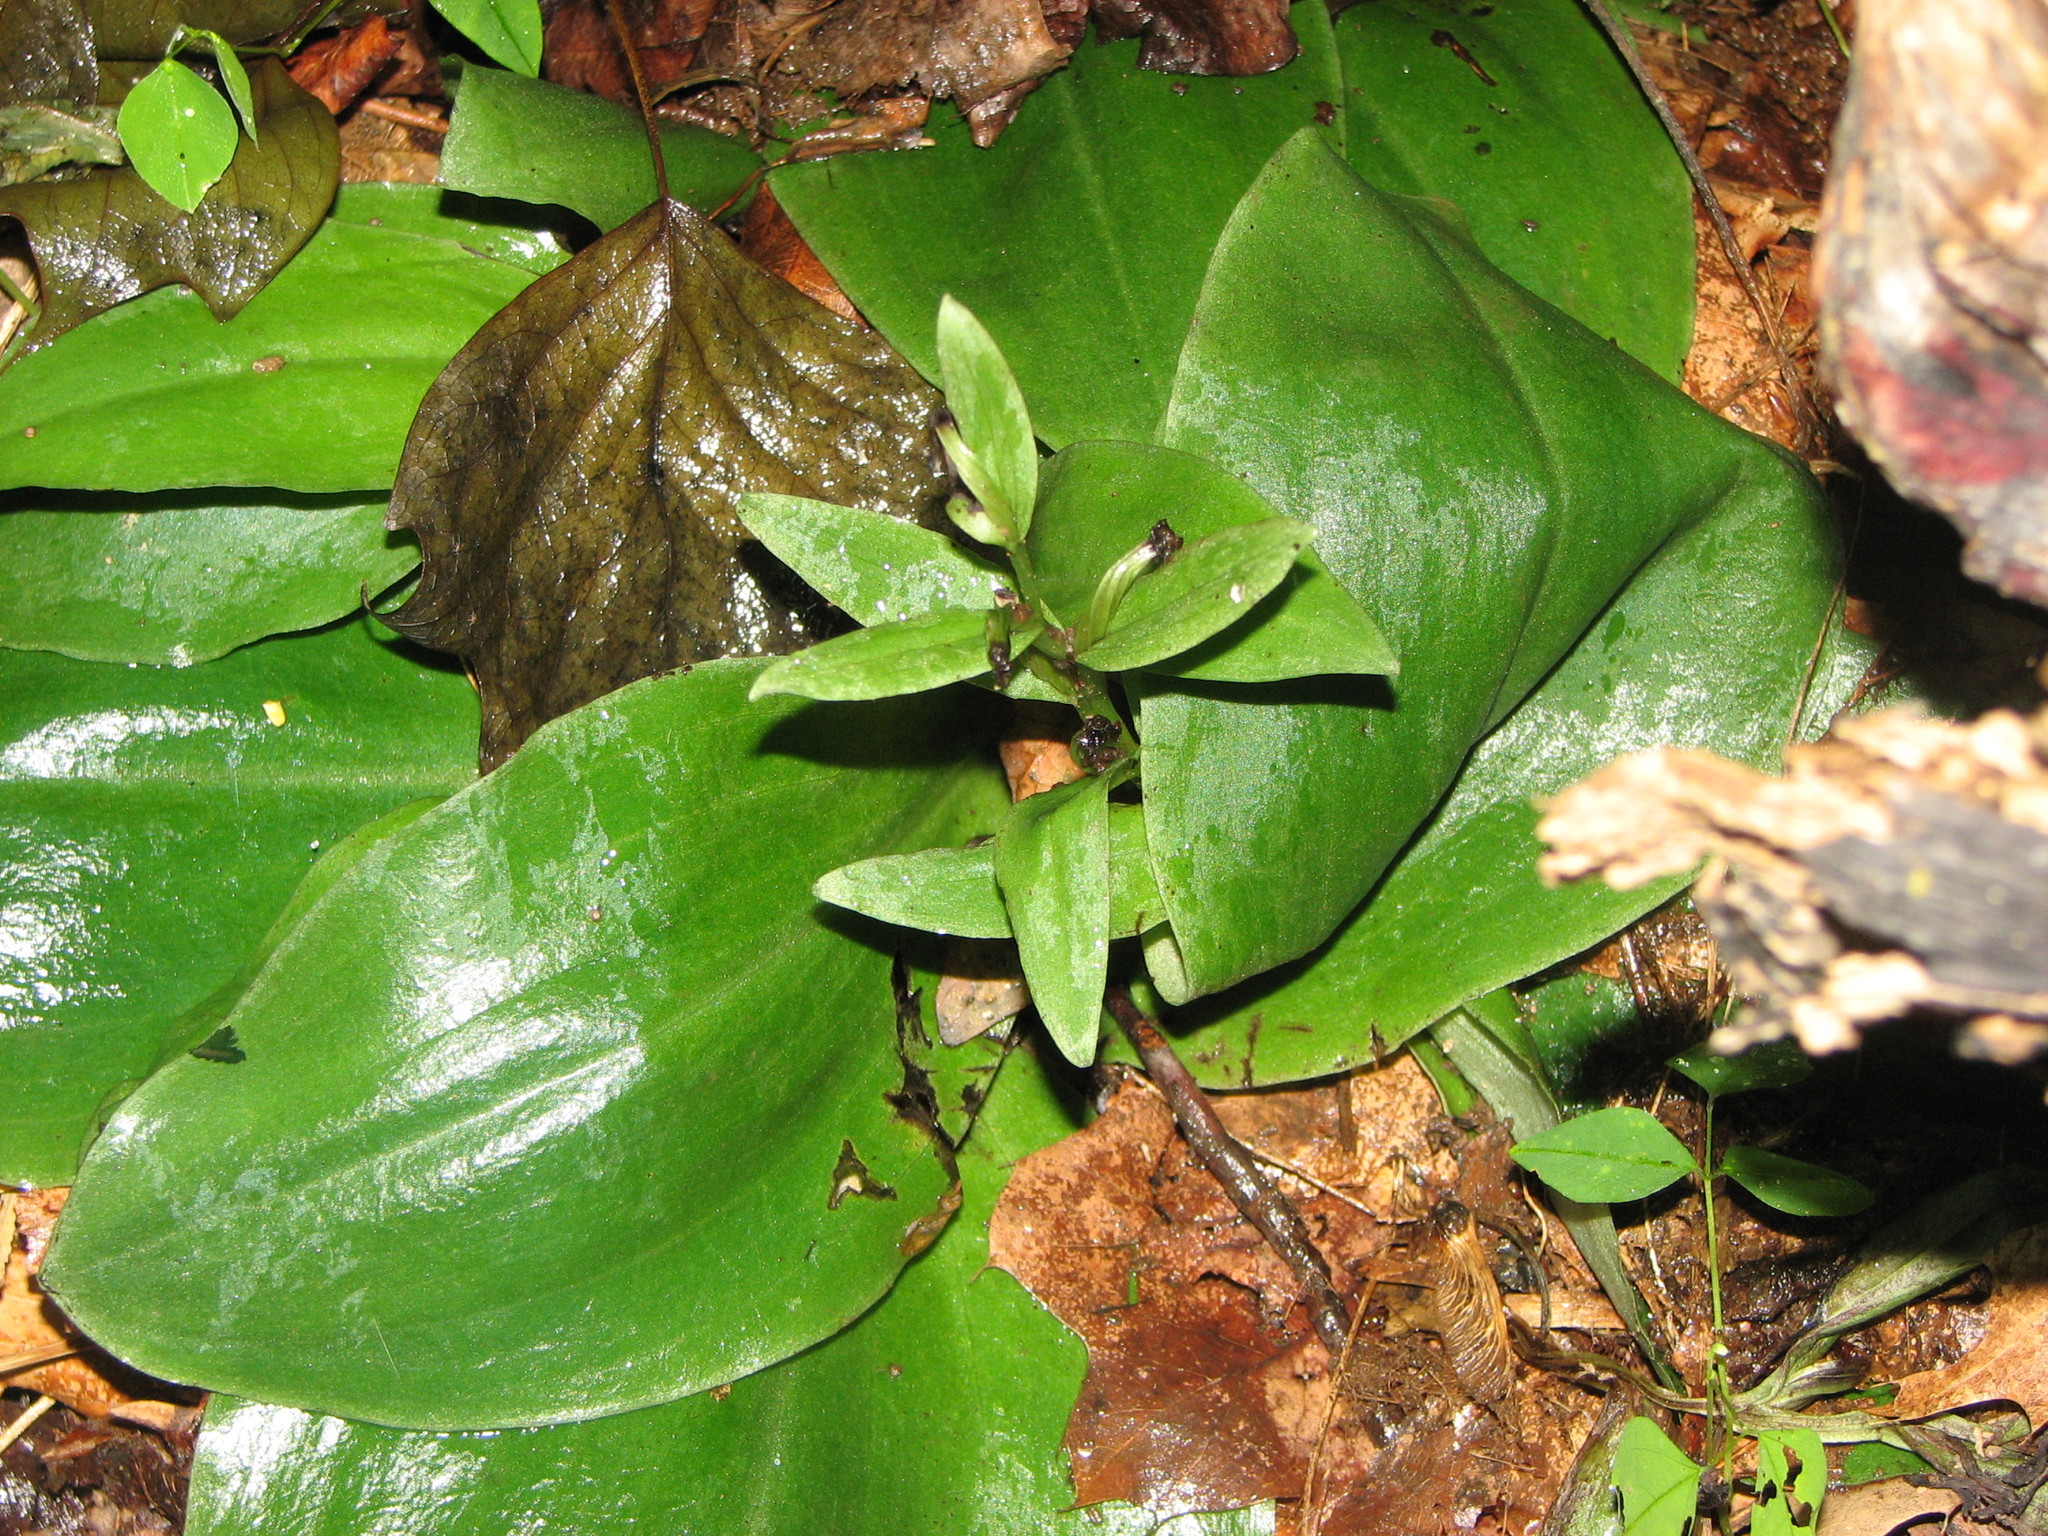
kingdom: Plantae
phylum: Tracheophyta
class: Liliopsida
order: Asparagales
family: Orchidaceae
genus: Galearis
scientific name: Galearis spectabilis
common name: Purple-hooded orchis
